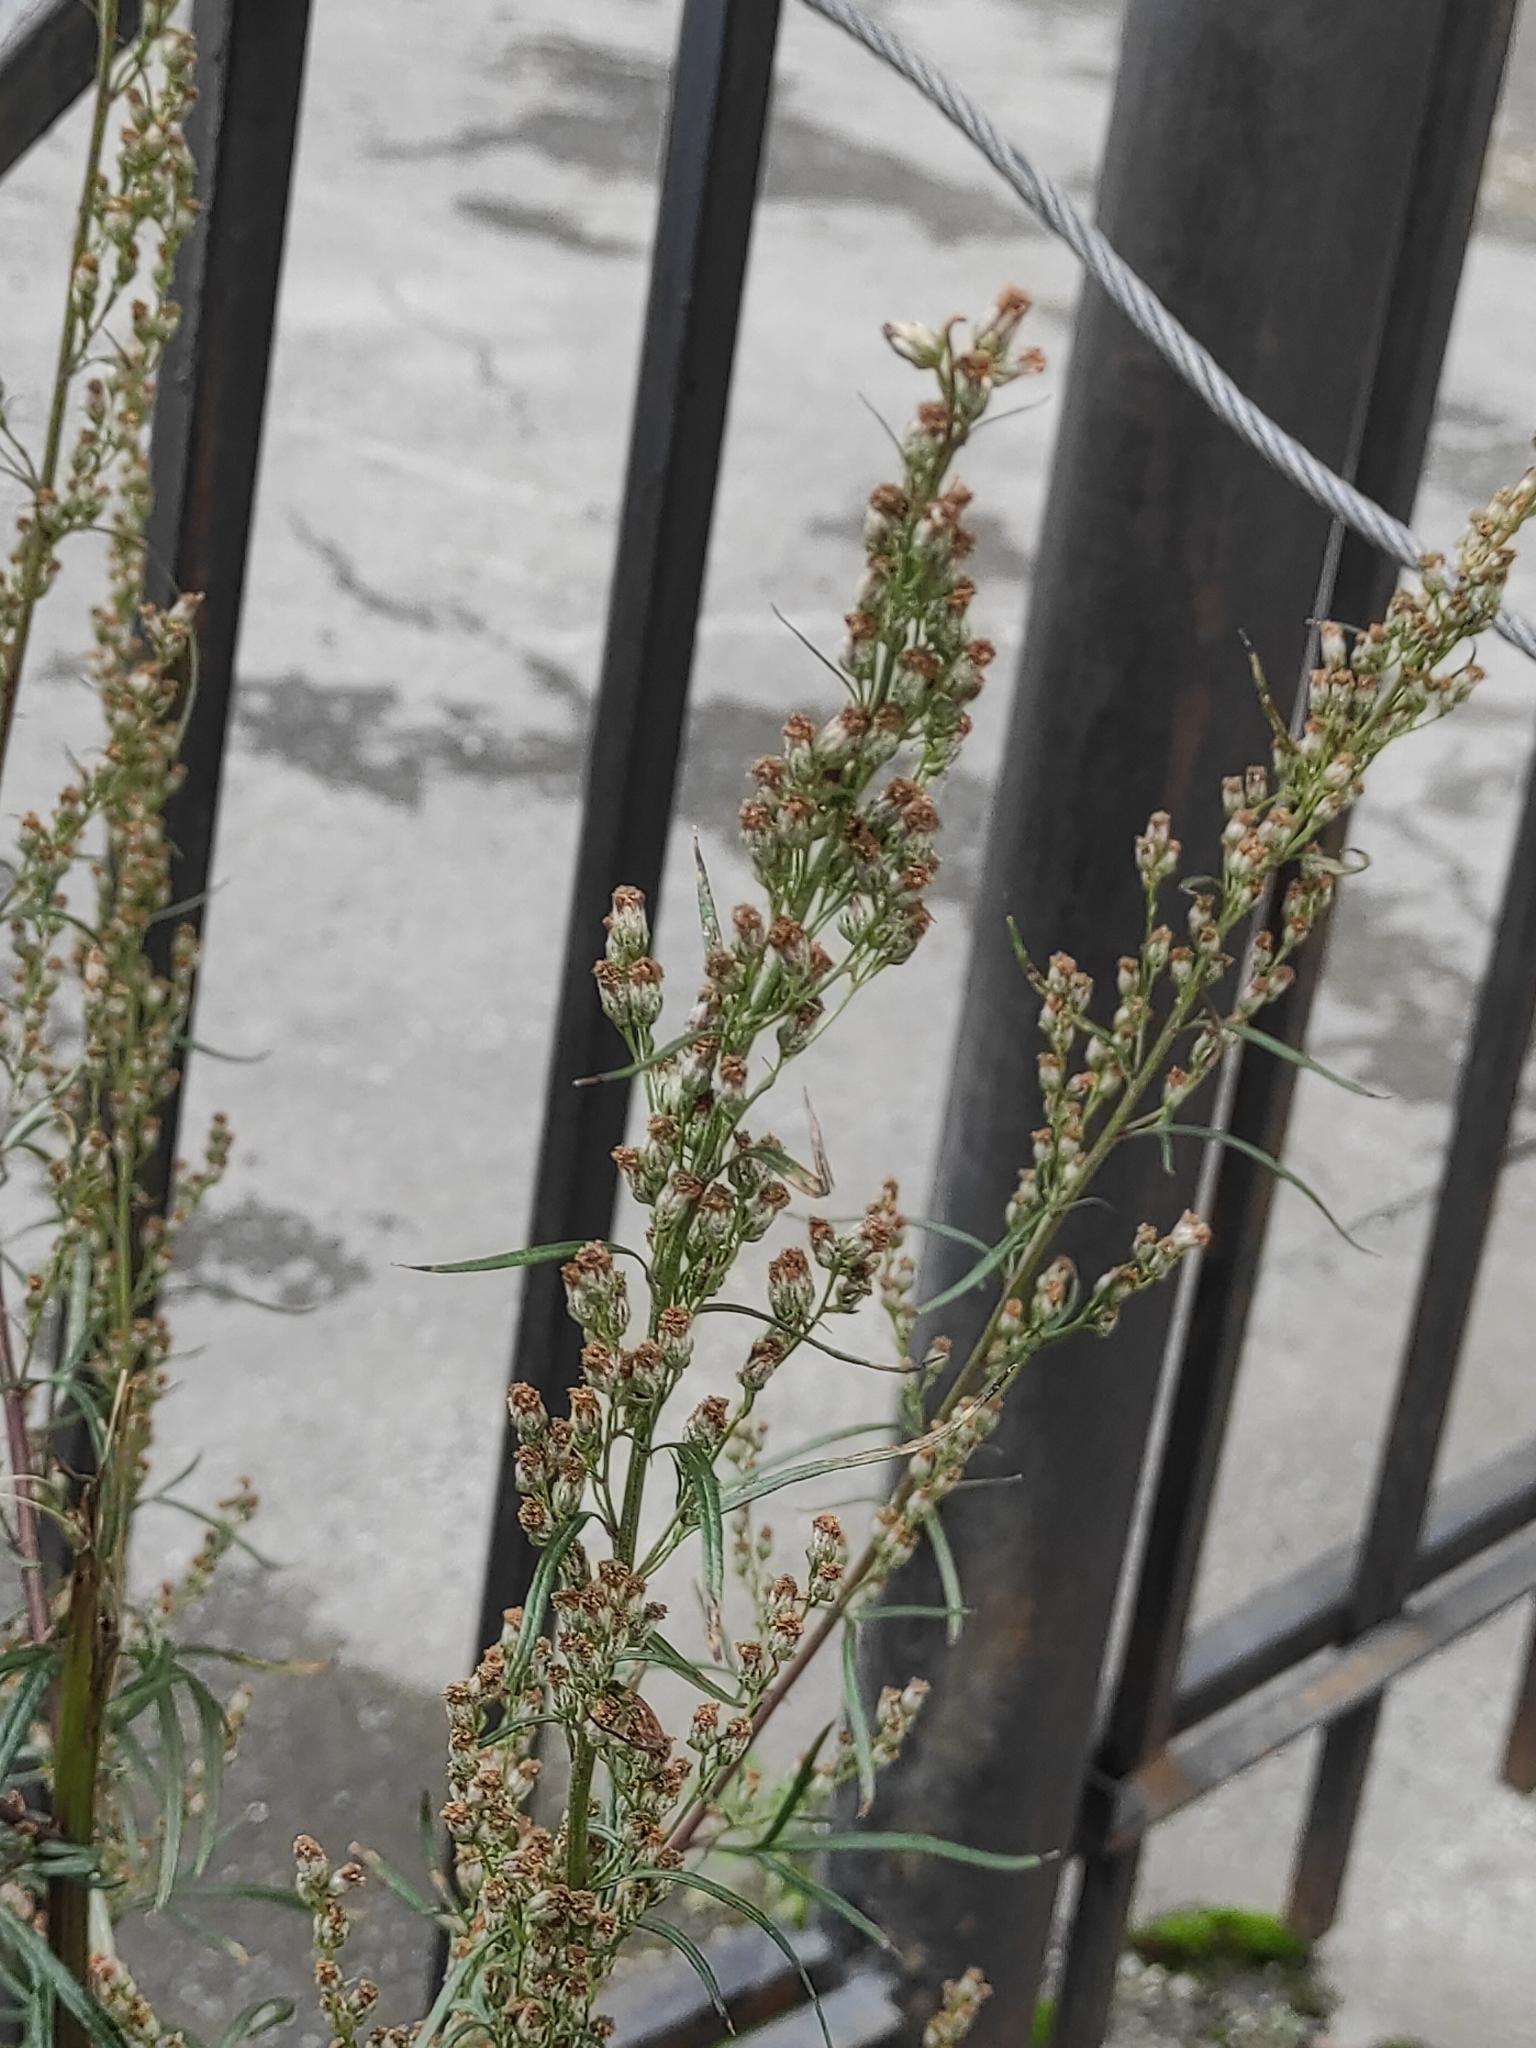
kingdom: Plantae
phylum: Tracheophyta
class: Magnoliopsida
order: Asterales
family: Asteraceae
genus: Artemisia
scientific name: Artemisia vulgaris
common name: Mugwort
